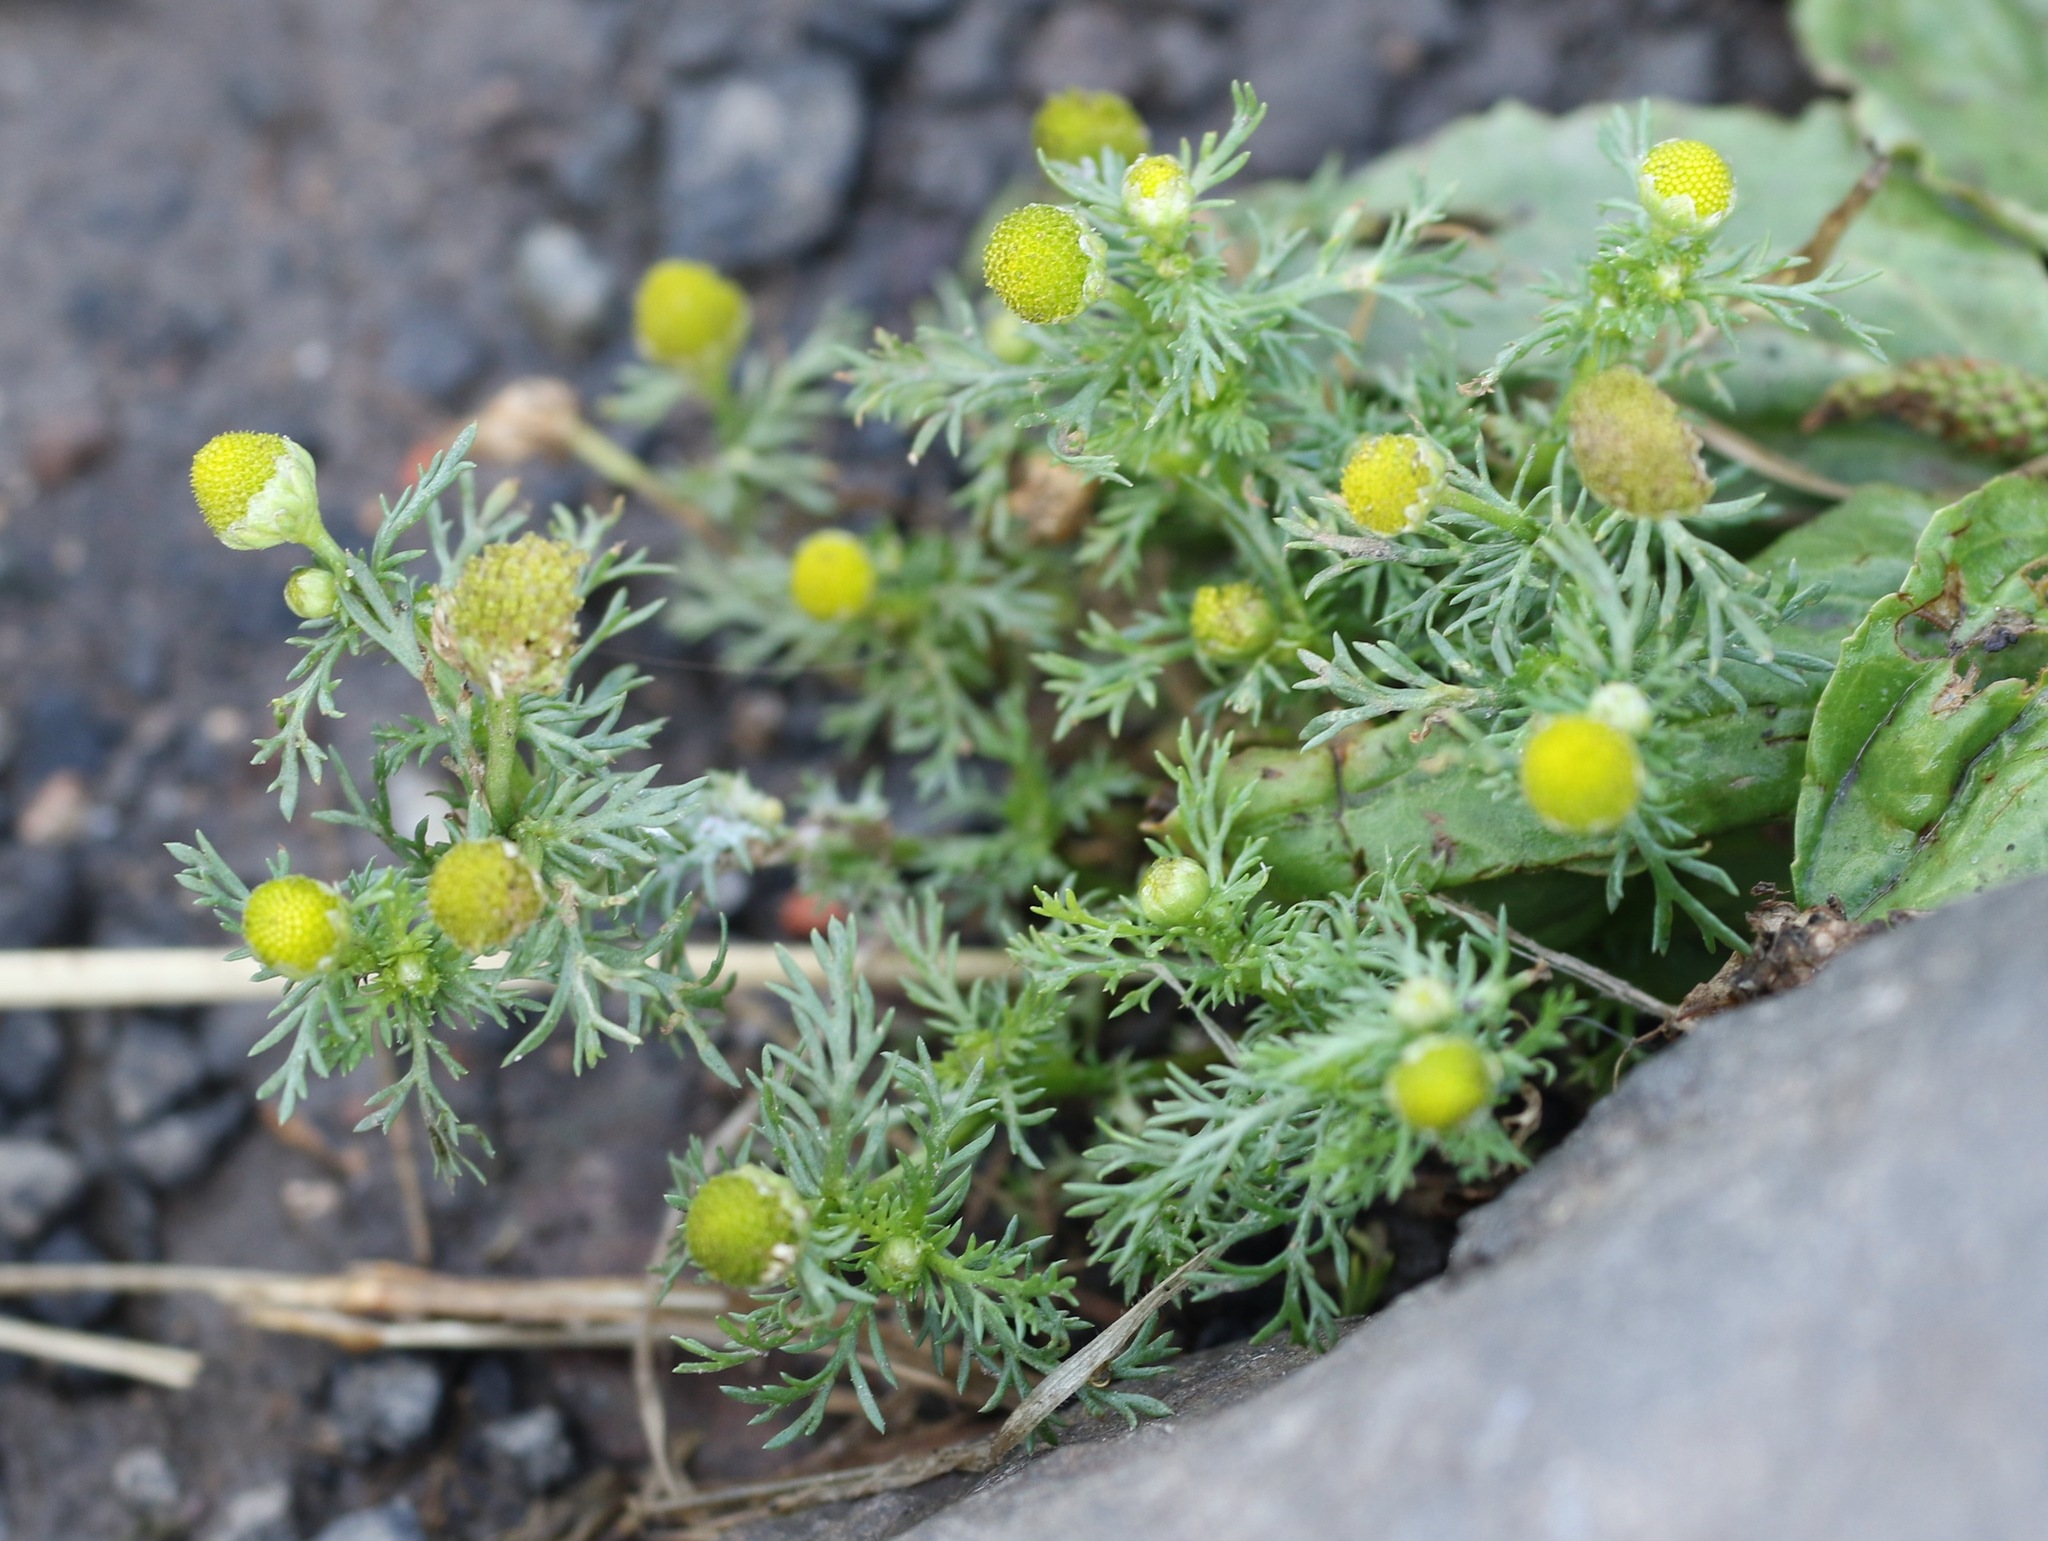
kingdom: Plantae
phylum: Tracheophyta
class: Magnoliopsida
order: Asterales
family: Asteraceae
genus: Matricaria
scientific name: Matricaria discoidea
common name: Disc mayweed
